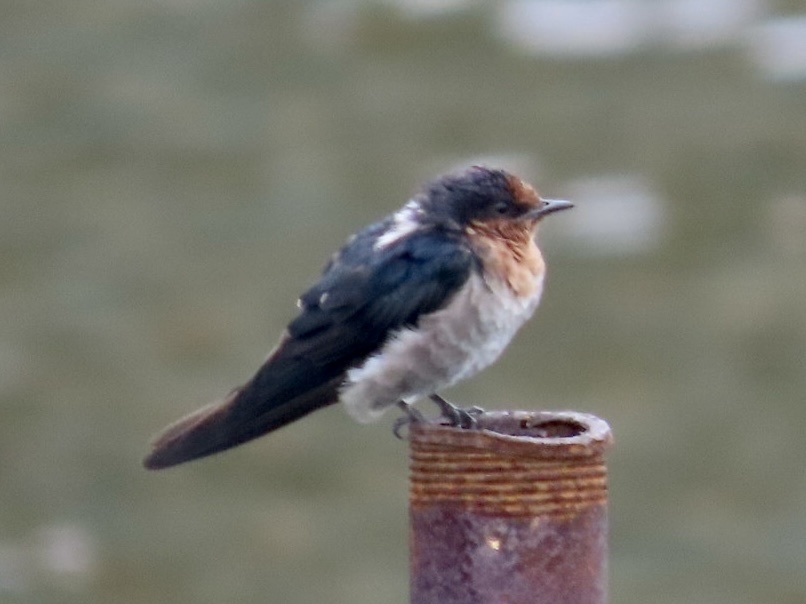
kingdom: Animalia
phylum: Chordata
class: Aves
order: Passeriformes
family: Hirundinidae
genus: Hirundo
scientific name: Hirundo tahitica
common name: Pacific swallow
